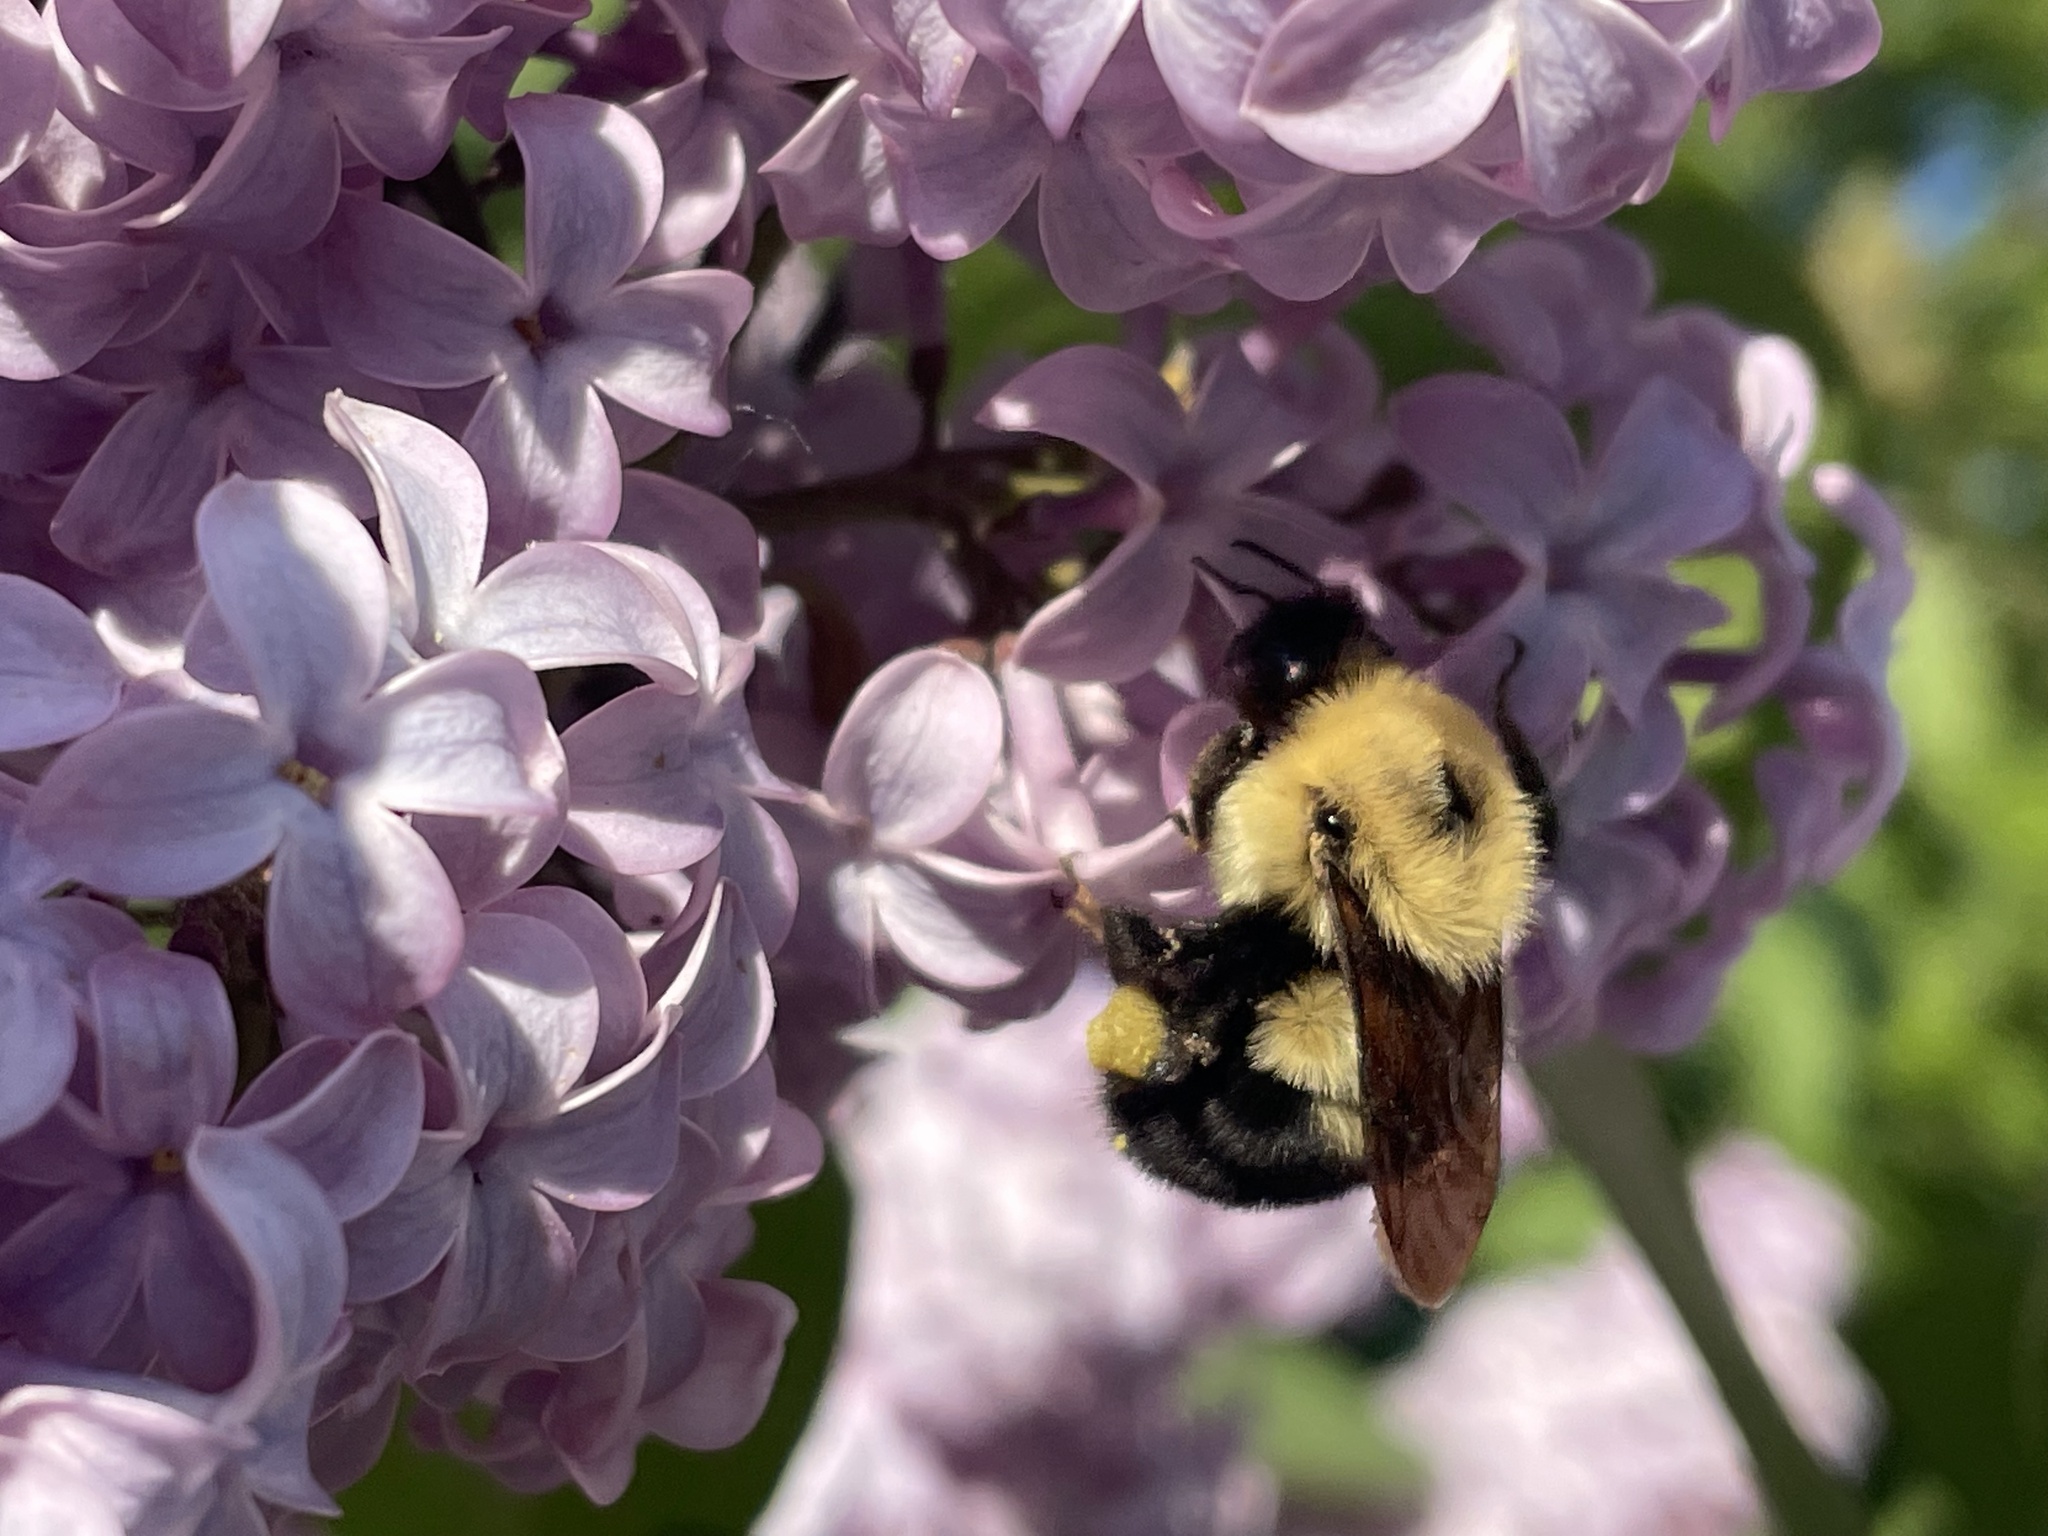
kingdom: Animalia
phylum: Arthropoda
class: Insecta
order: Hymenoptera
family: Apidae
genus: Bombus
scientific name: Bombus bimaculatus
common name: Two-spotted bumble bee
